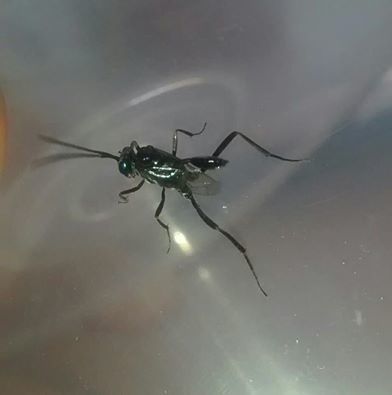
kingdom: Animalia
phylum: Arthropoda
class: Insecta
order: Hymenoptera
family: Evaniidae
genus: Evania
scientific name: Evania appendigaster
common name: Ensign wasp
